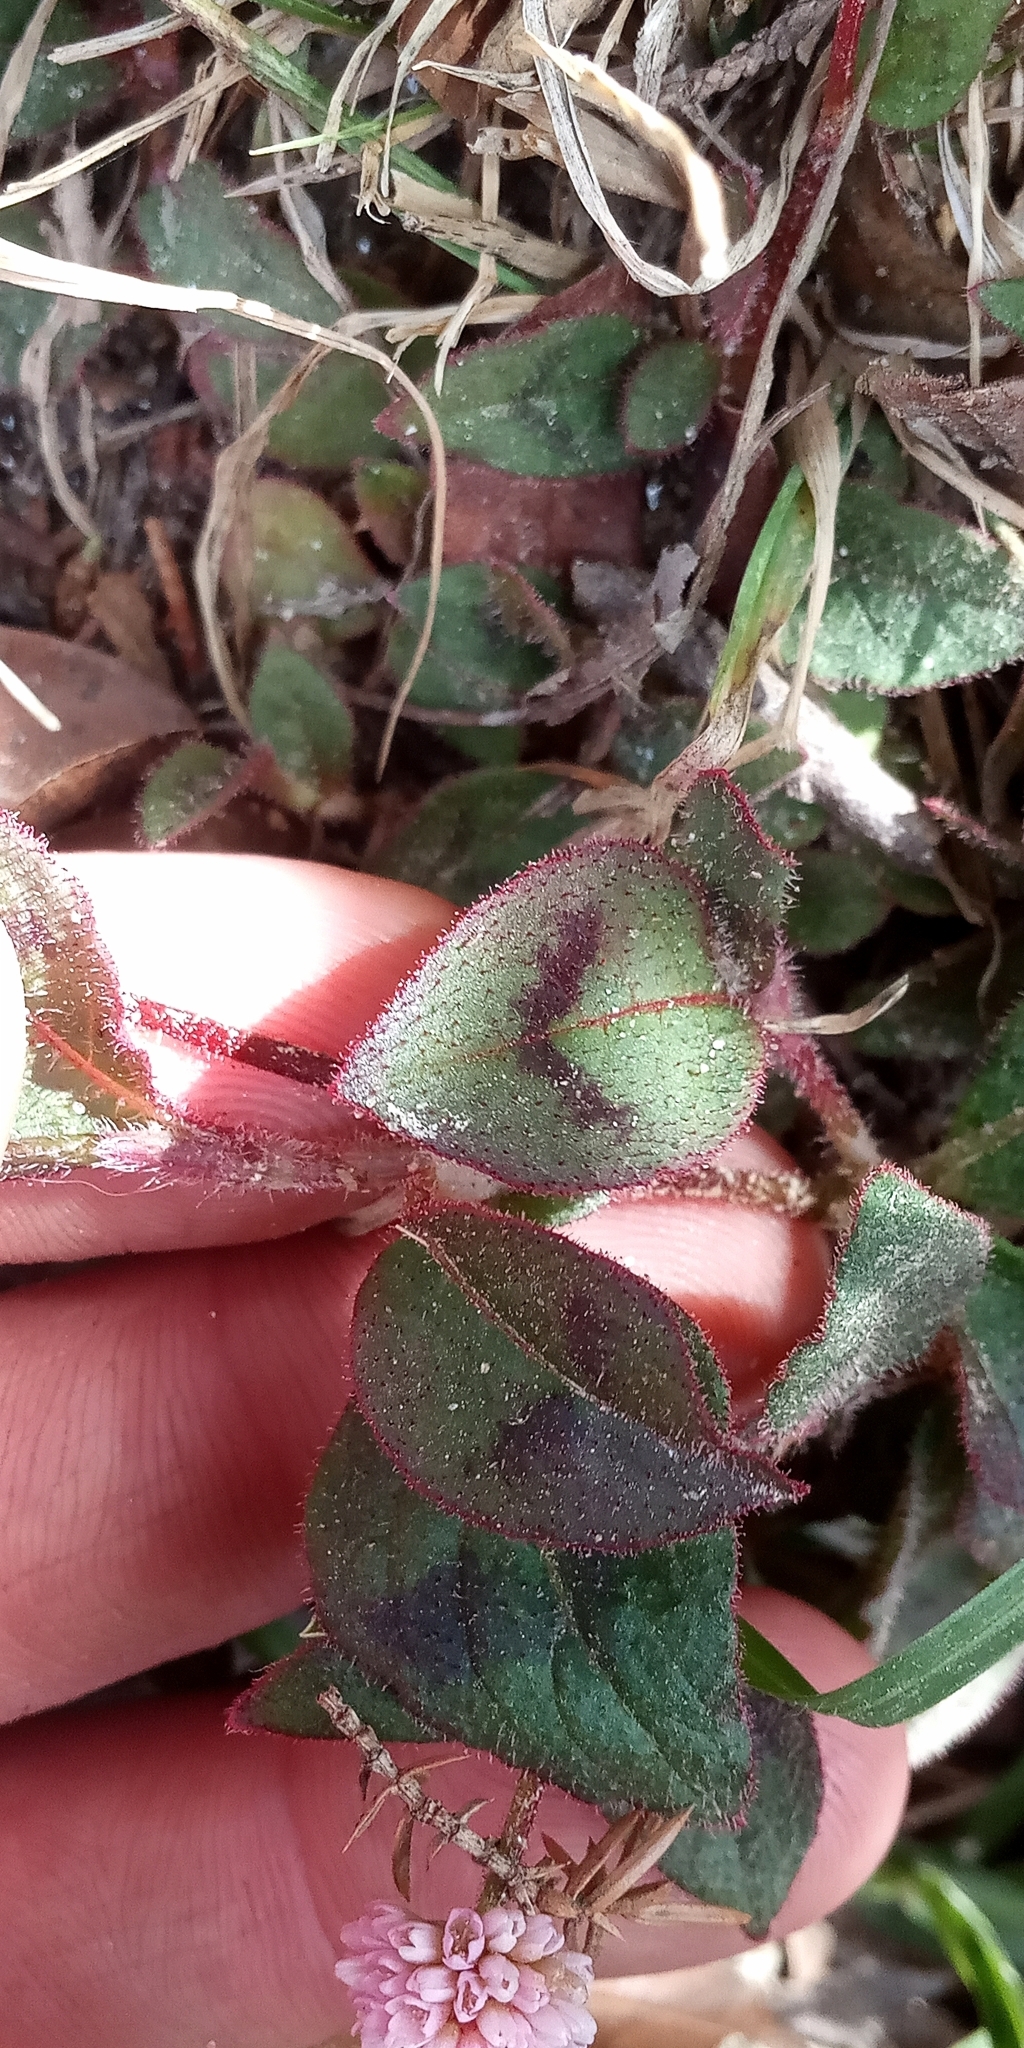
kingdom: Plantae
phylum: Tracheophyta
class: Magnoliopsida
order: Caryophyllales
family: Polygonaceae
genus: Persicaria
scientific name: Persicaria capitata
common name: Pinkhead smartweed
